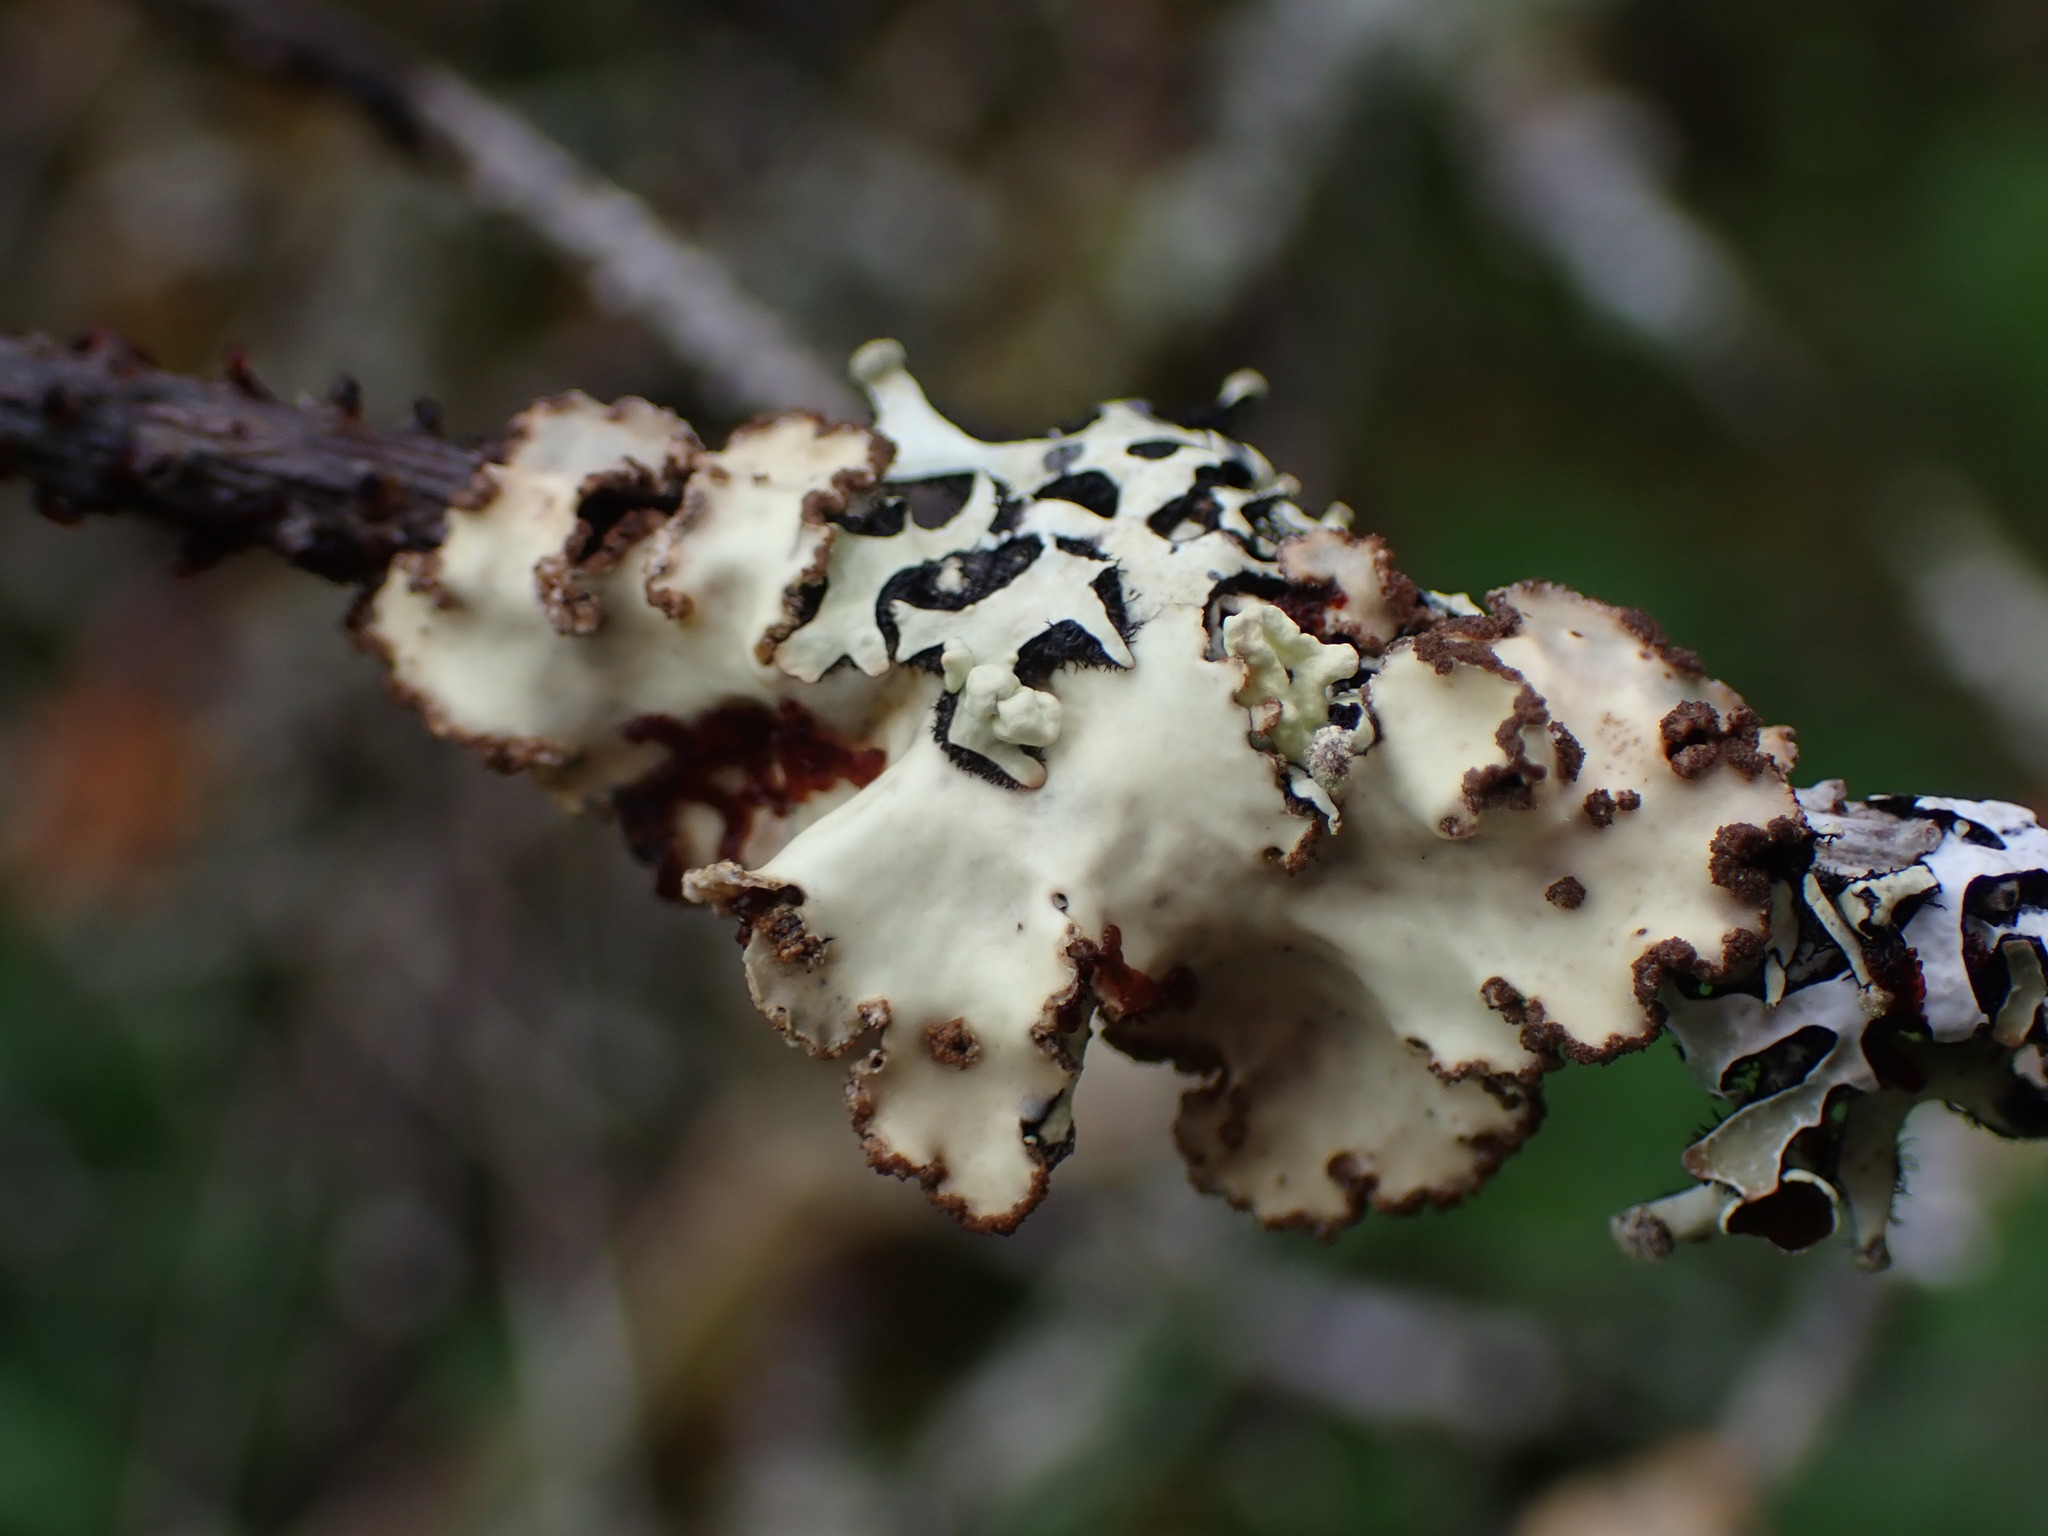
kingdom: Fungi
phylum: Ascomycota
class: Lecanoromycetes
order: Peltigerales
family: Lobariaceae
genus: Lobarina
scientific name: Lobarina scrobiculata
